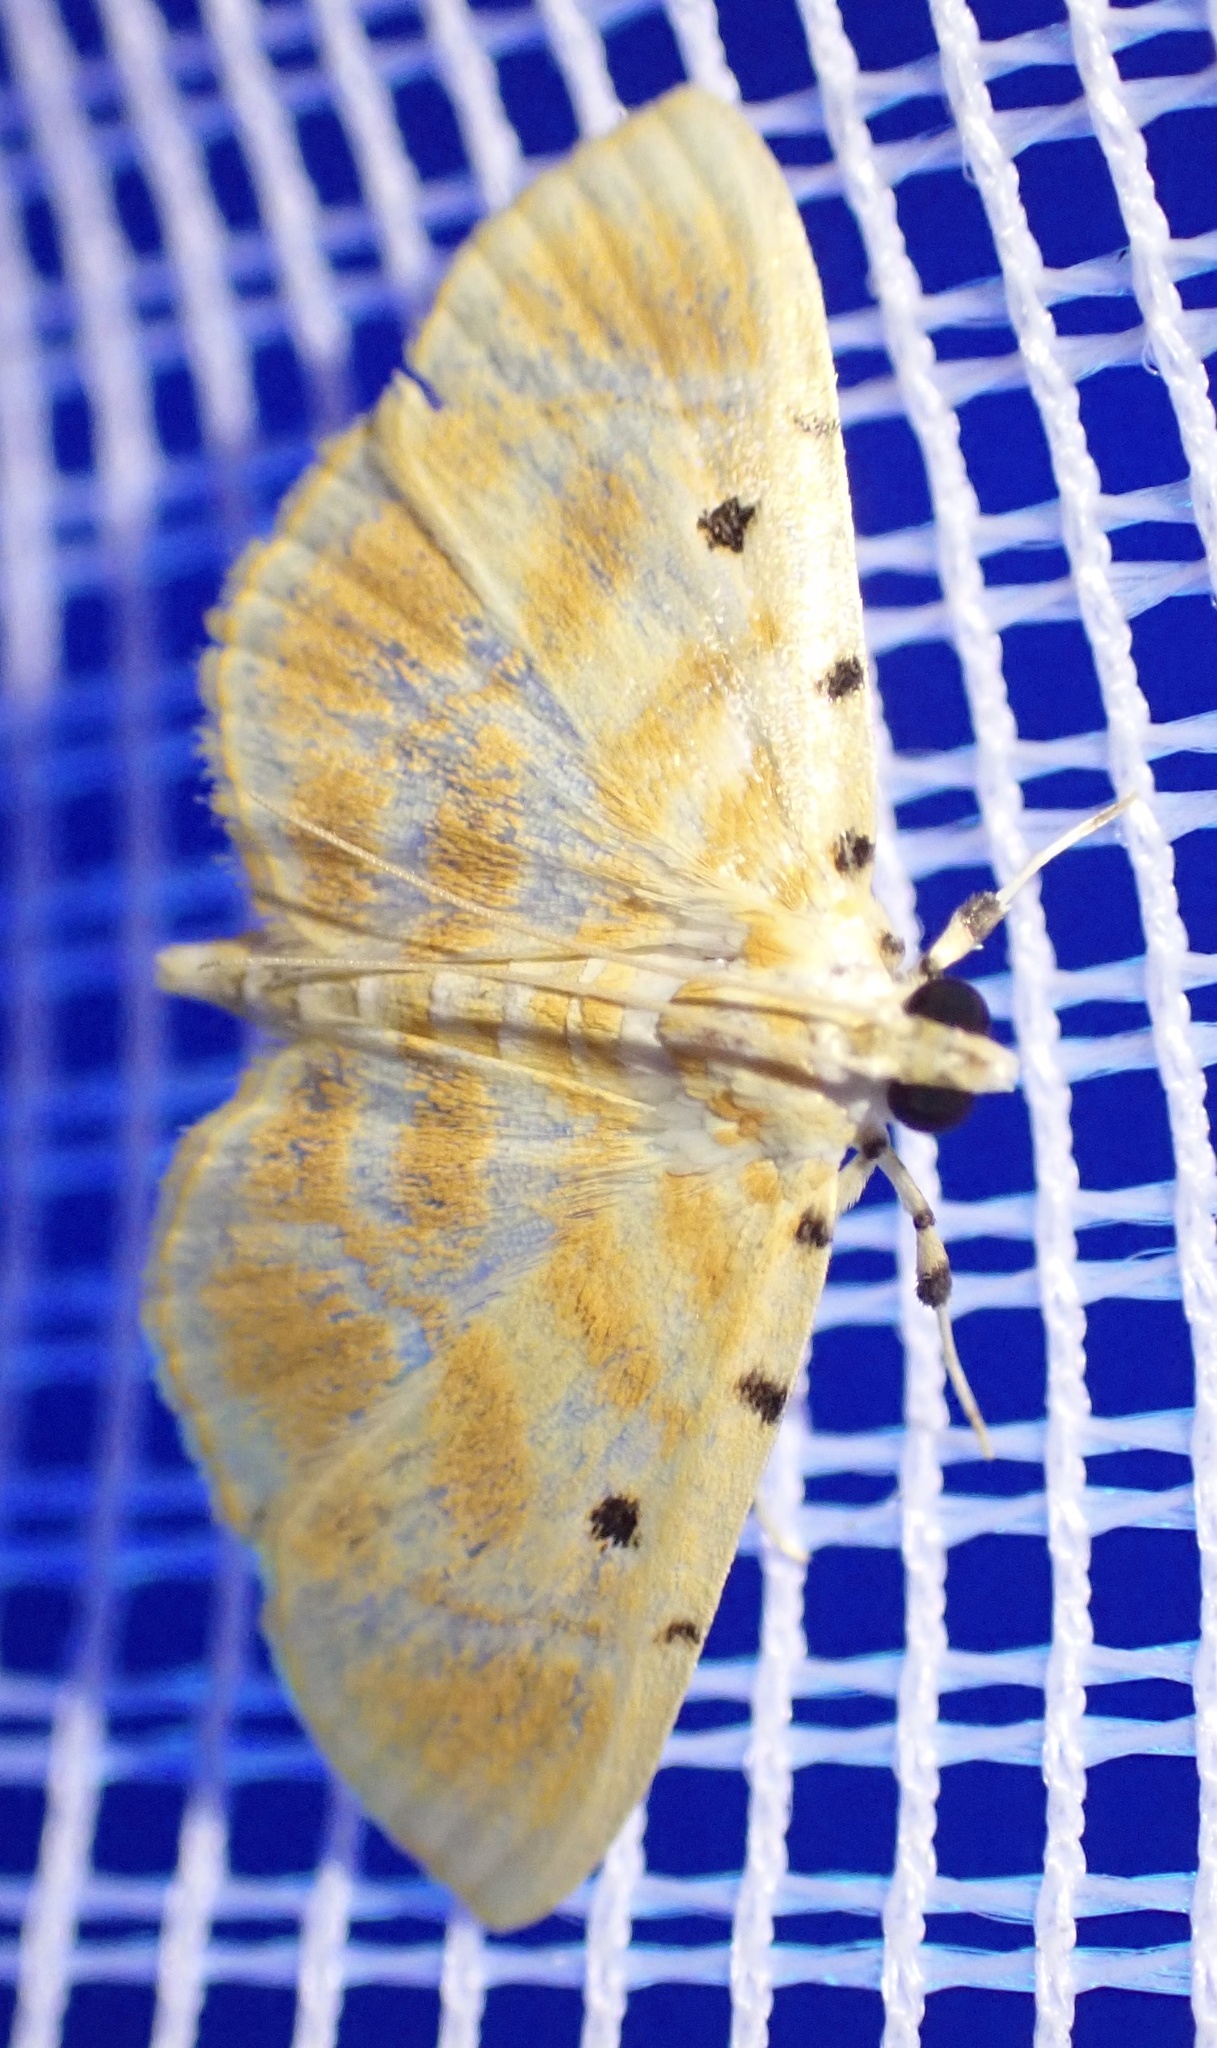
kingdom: Animalia
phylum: Arthropoda
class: Insecta
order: Lepidoptera
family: Crambidae
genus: Lygropia
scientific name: Lygropia tetraspilalis
